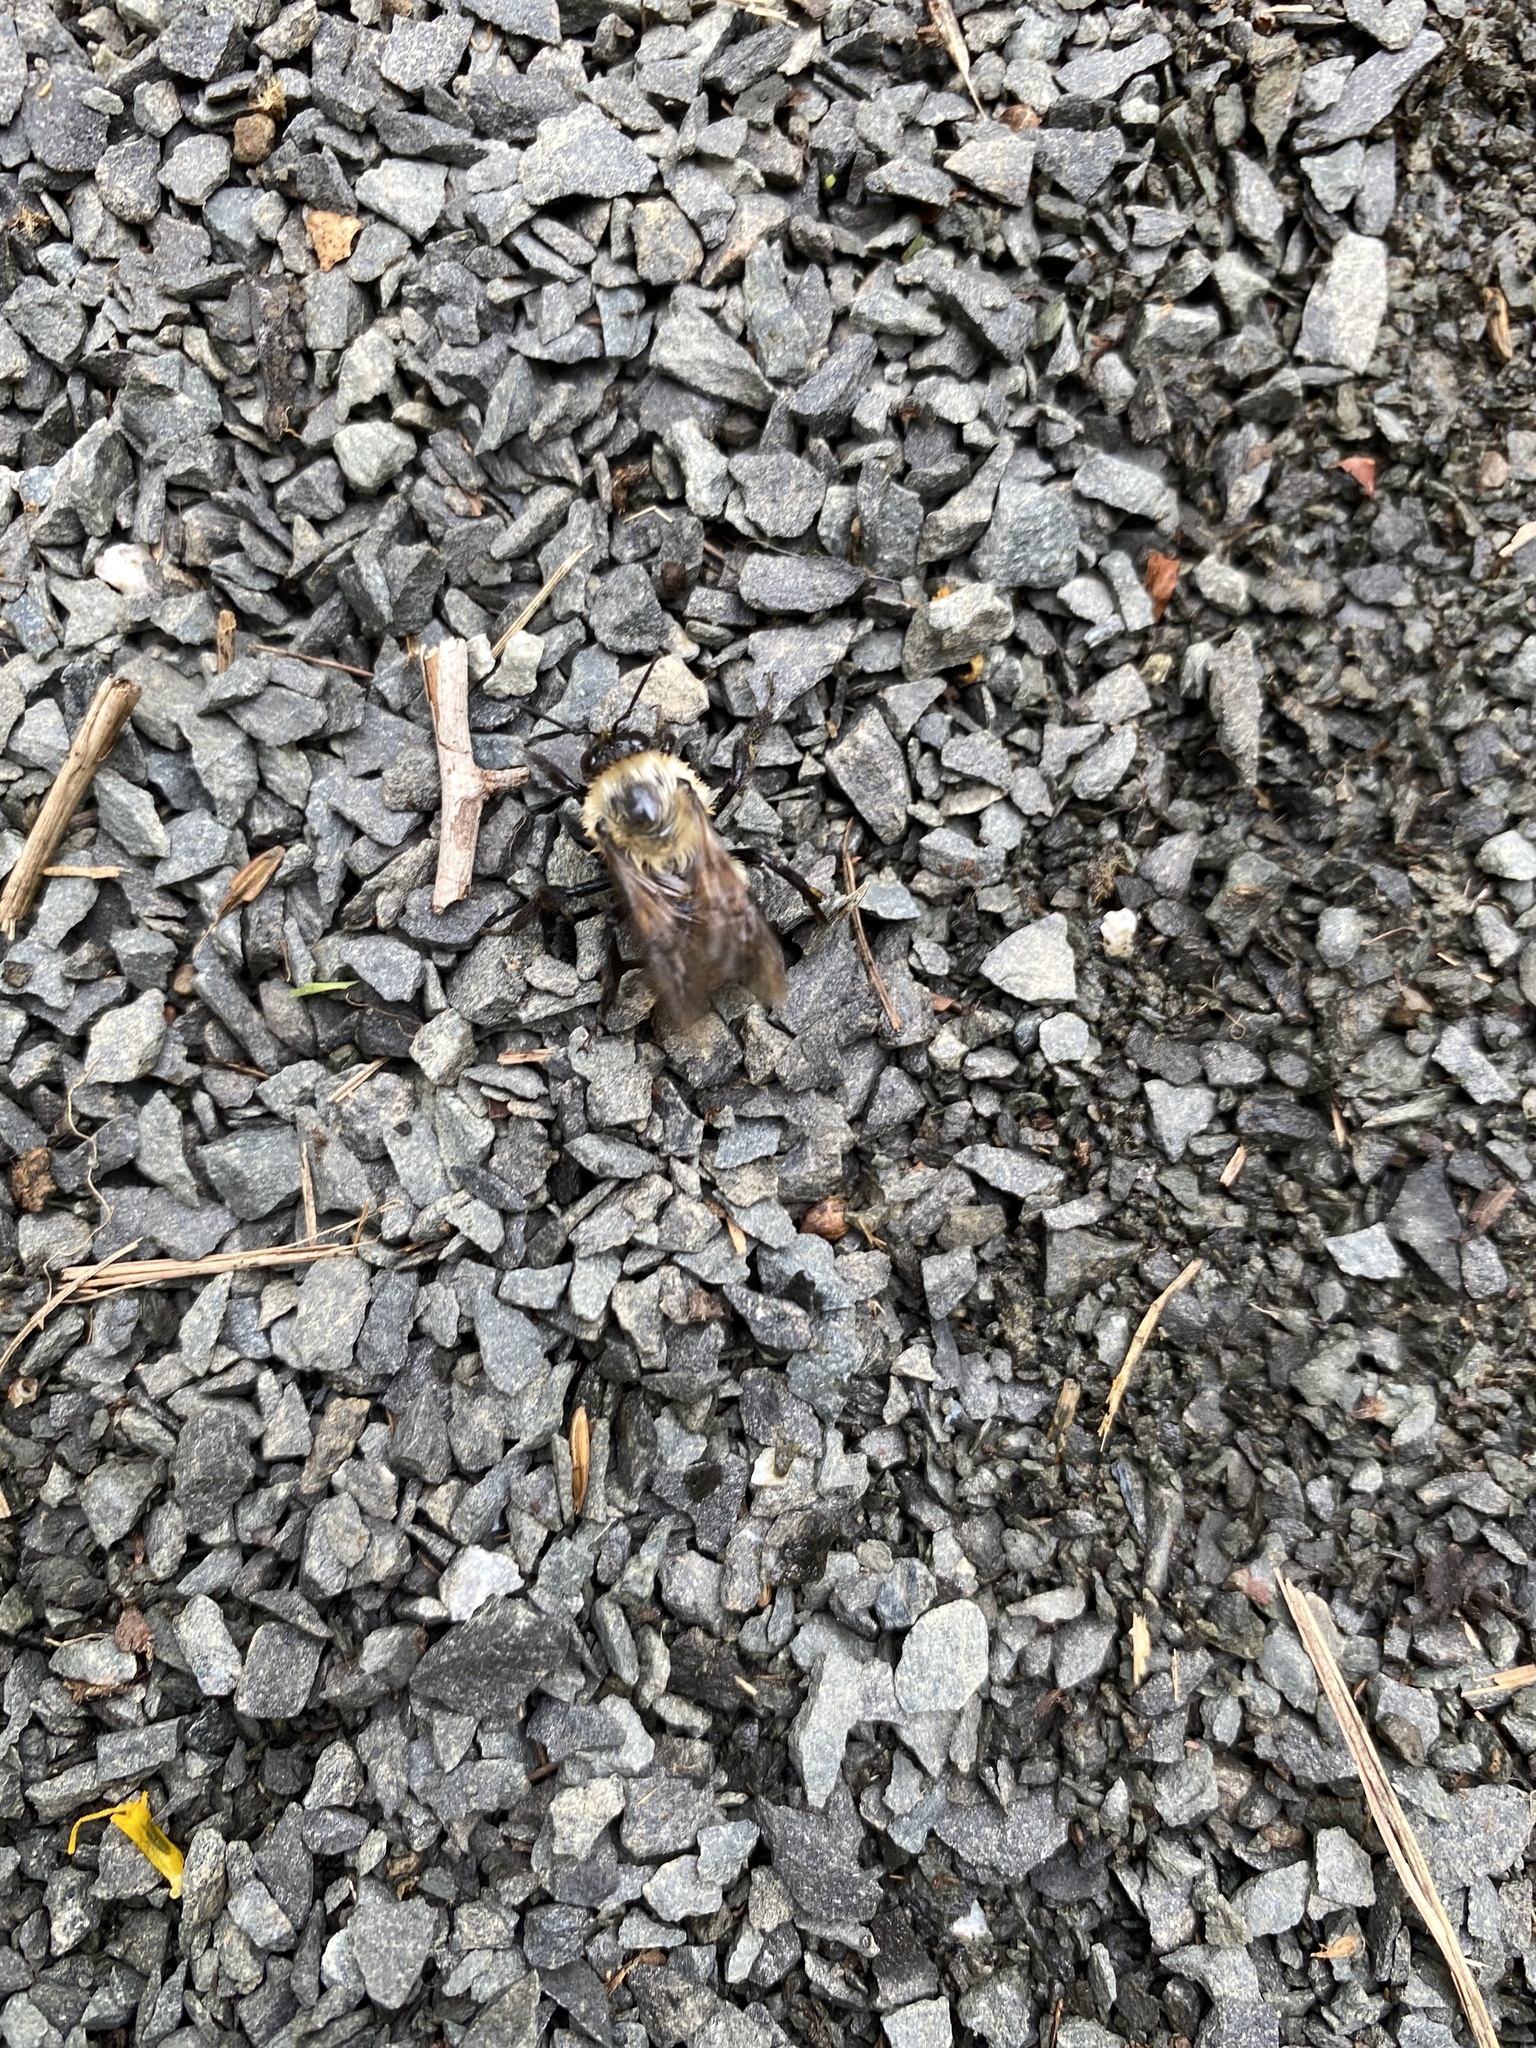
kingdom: Animalia
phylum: Arthropoda
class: Insecta
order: Hymenoptera
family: Apidae
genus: Bombus
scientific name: Bombus griseocollis
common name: Brown-belted bumble bee
